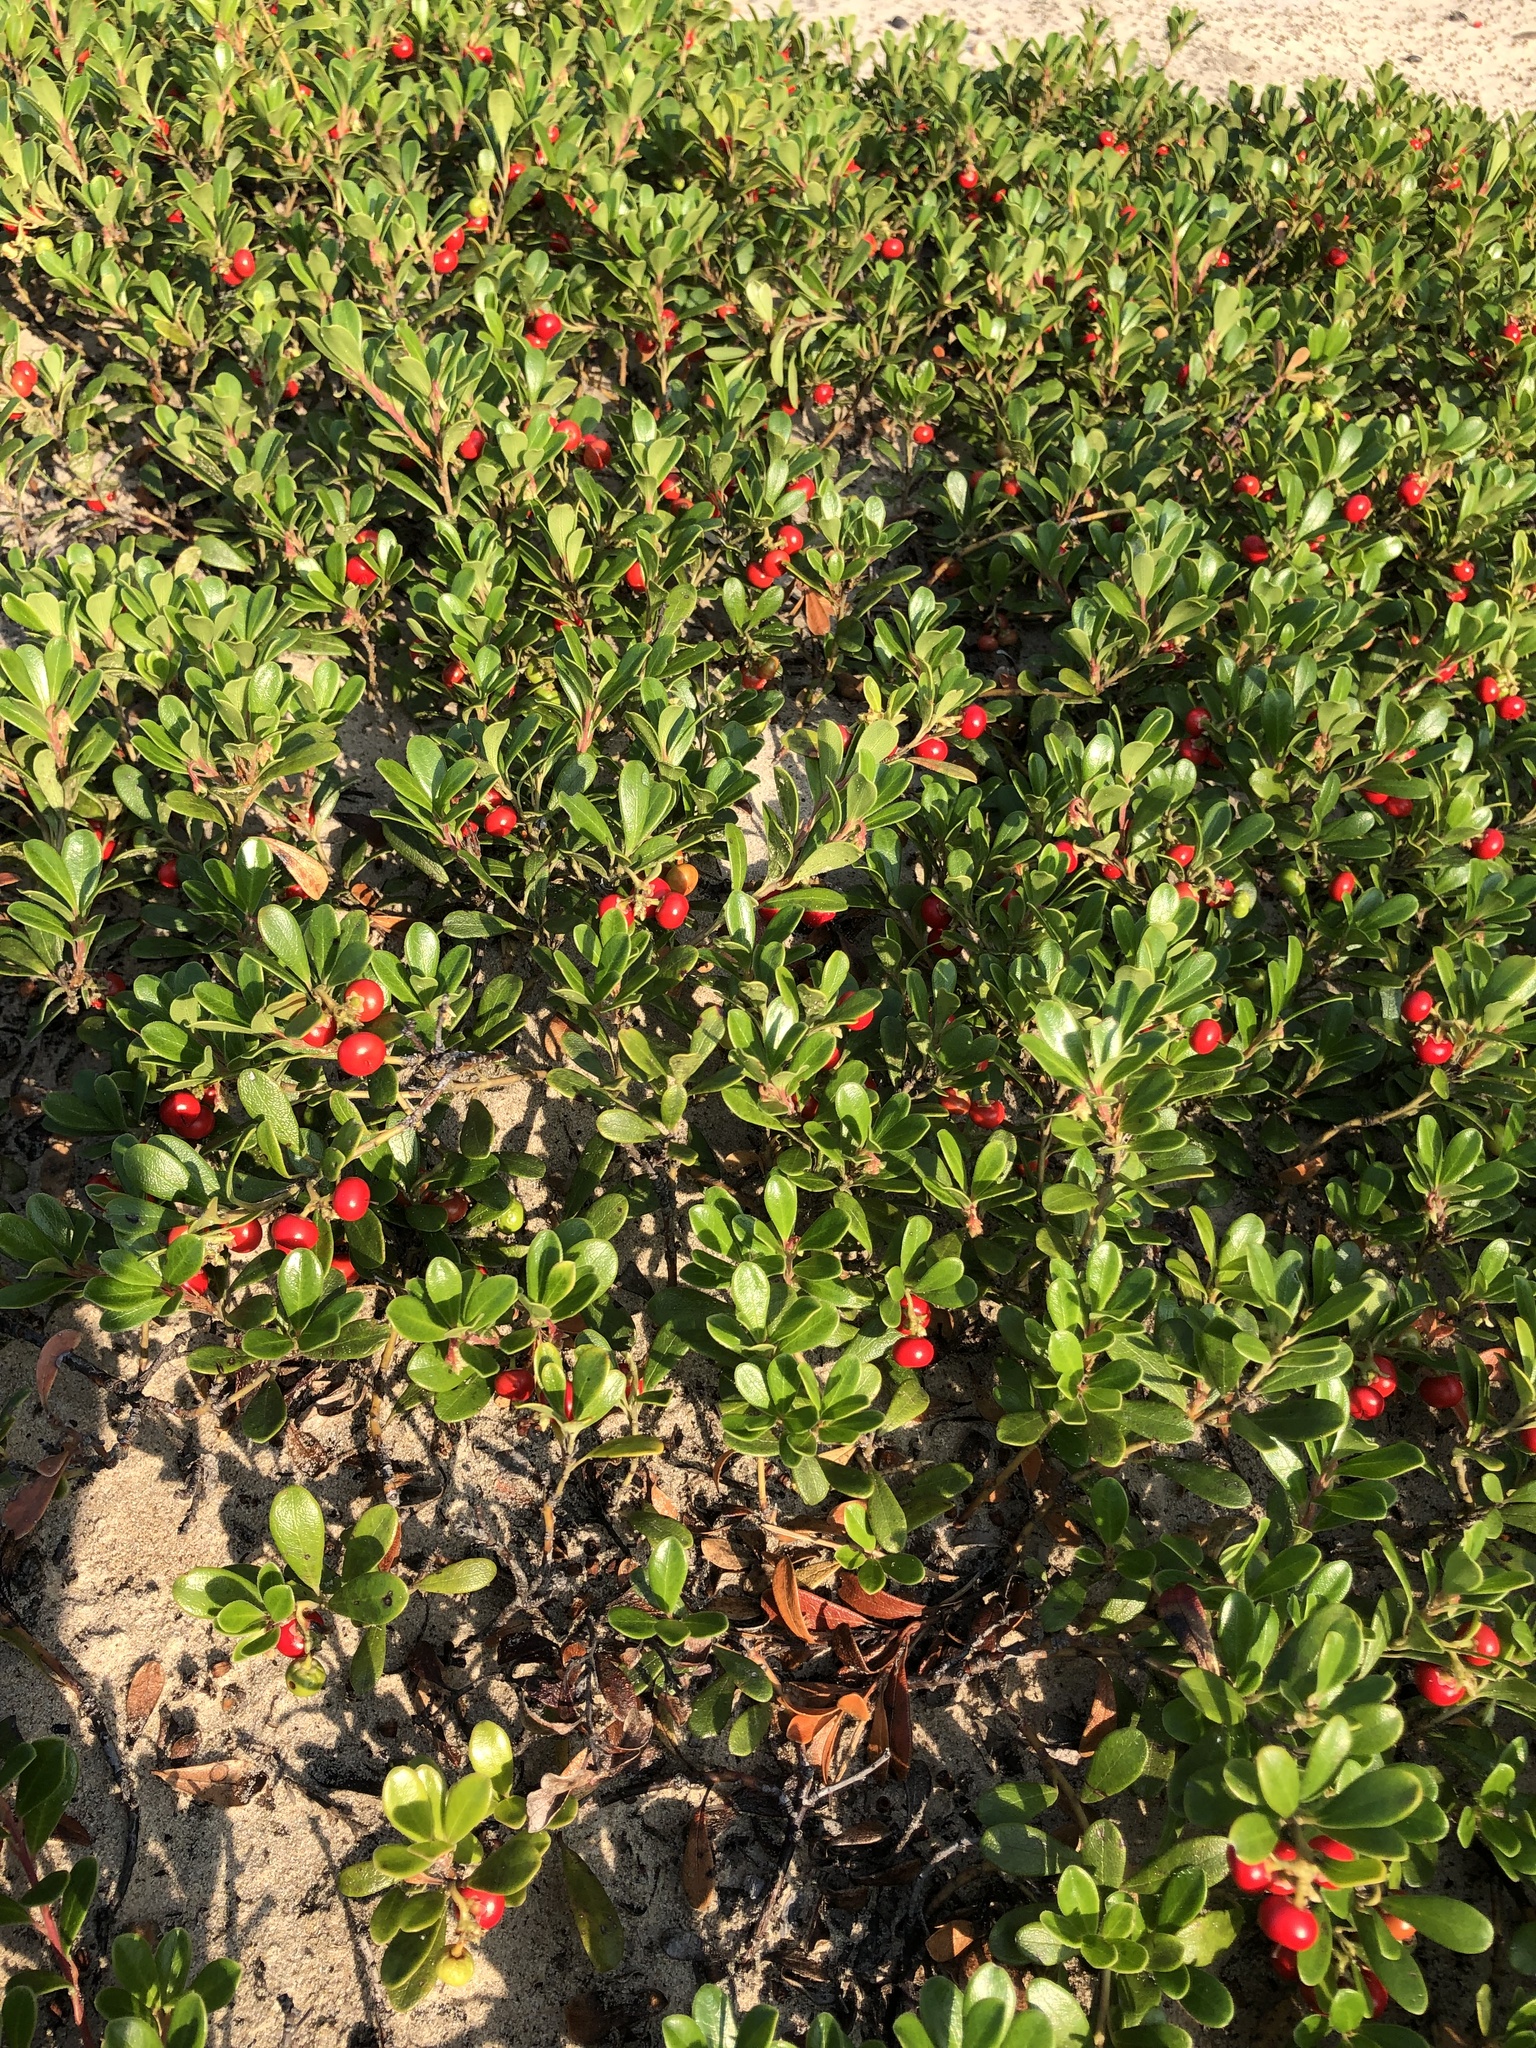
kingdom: Plantae
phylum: Tracheophyta
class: Magnoliopsida
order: Ericales
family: Ericaceae
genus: Arctostaphylos
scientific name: Arctostaphylos uva-ursi
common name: Bearberry
